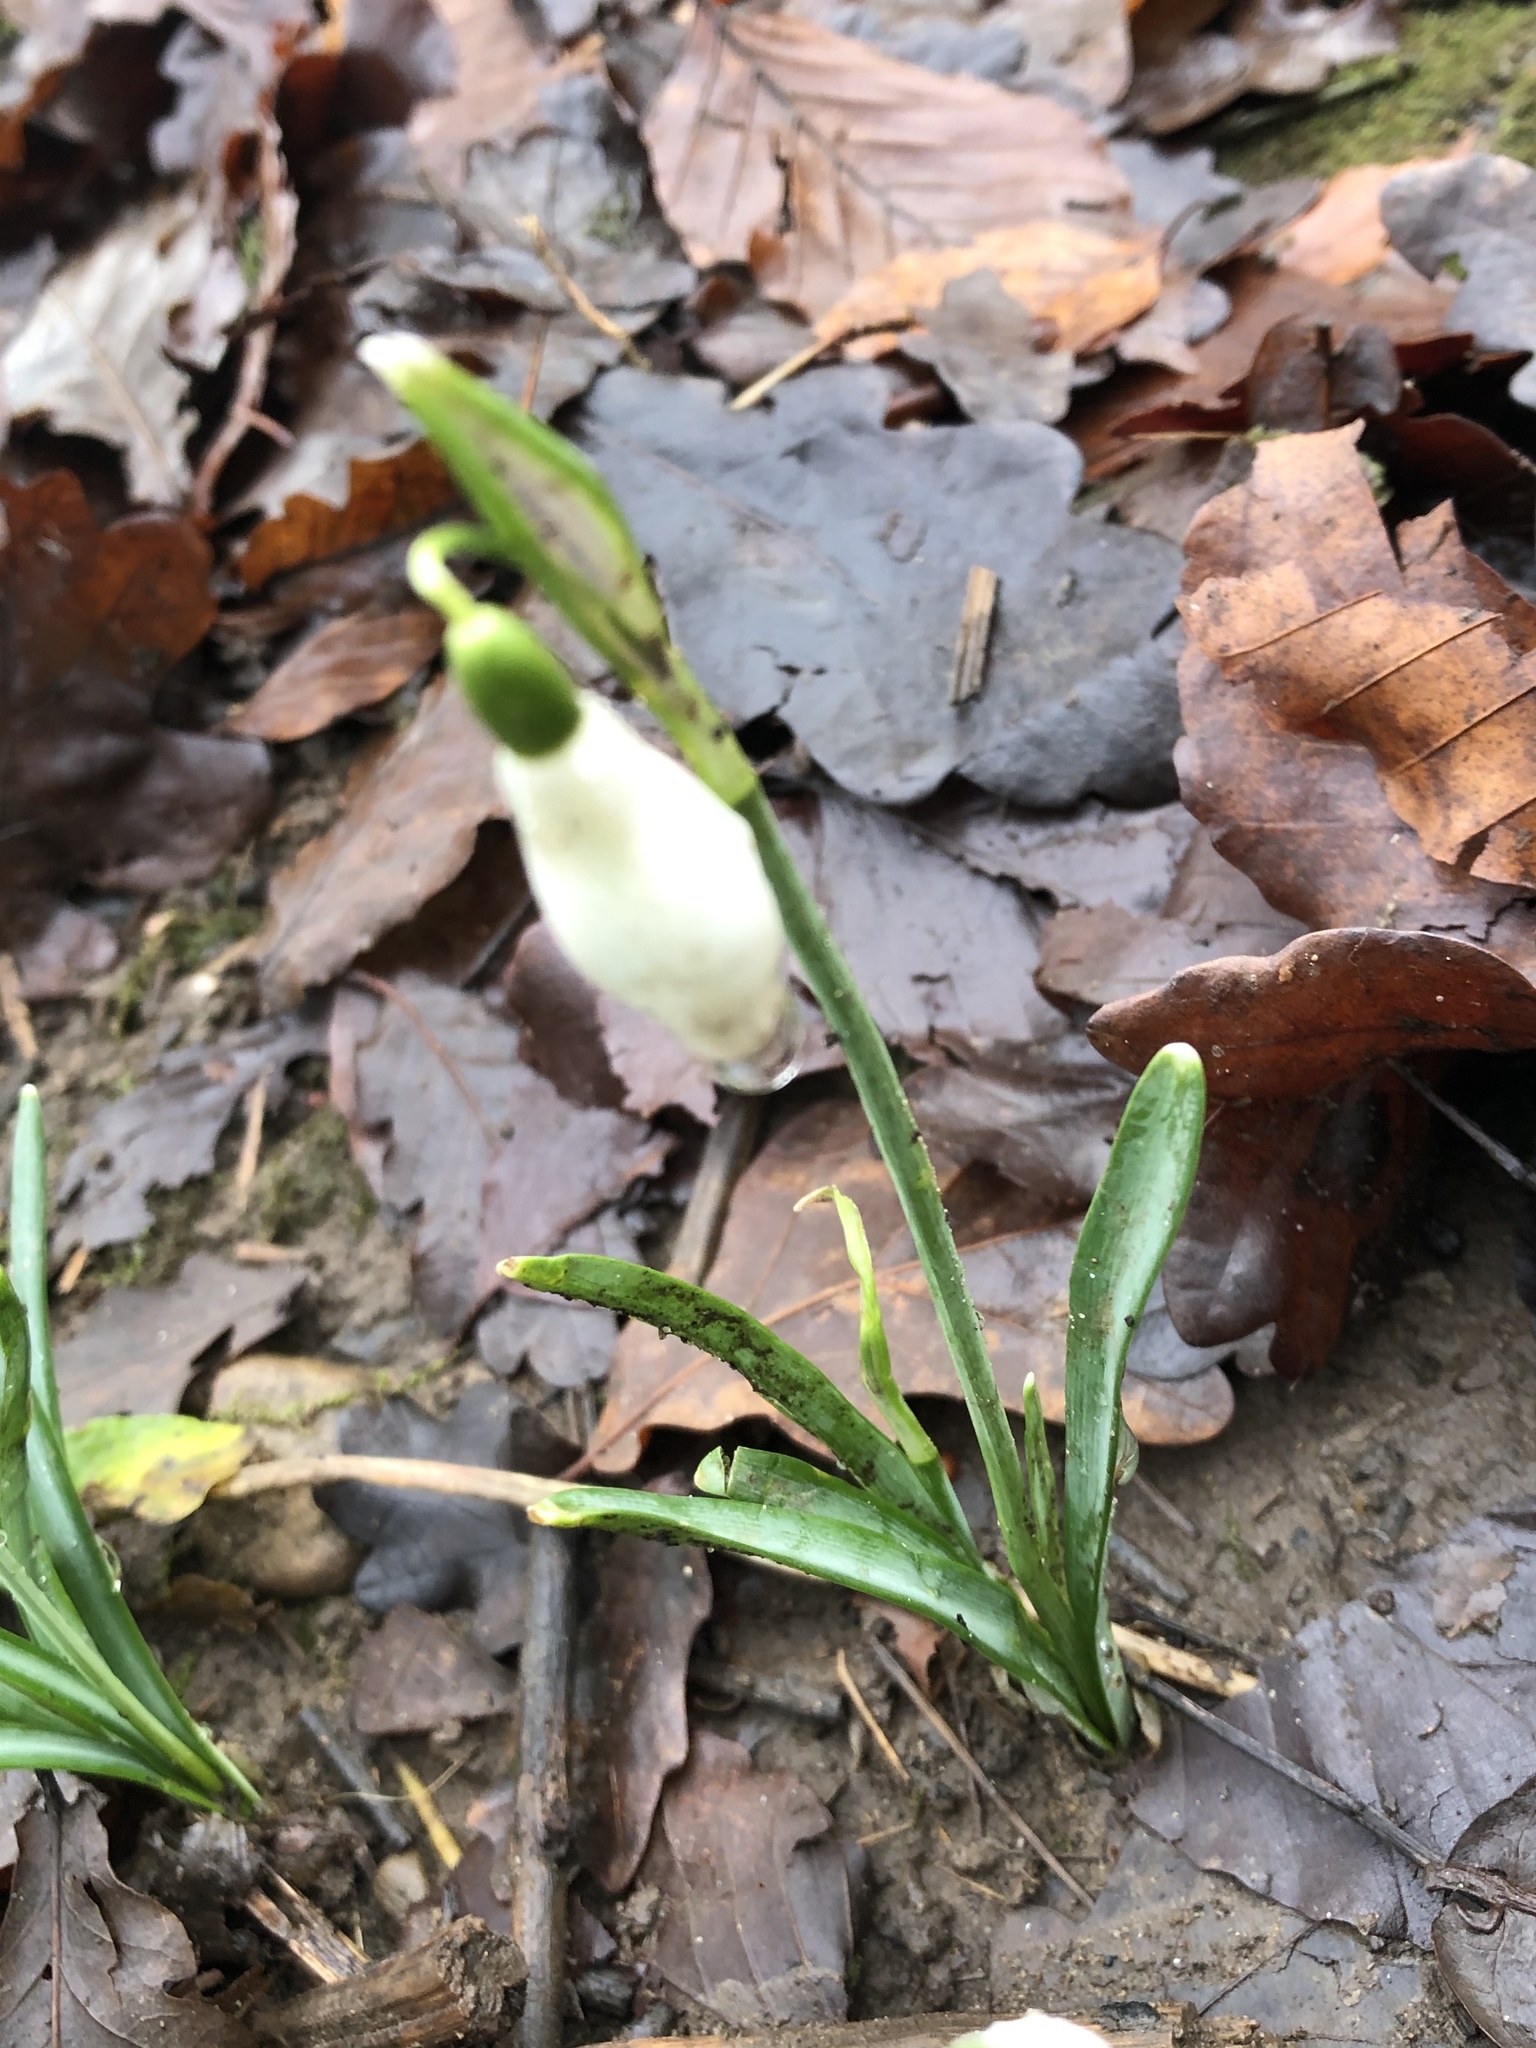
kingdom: Plantae
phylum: Tracheophyta
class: Liliopsida
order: Asparagales
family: Amaryllidaceae
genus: Galanthus
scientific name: Galanthus nivalis
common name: Snowdrop
